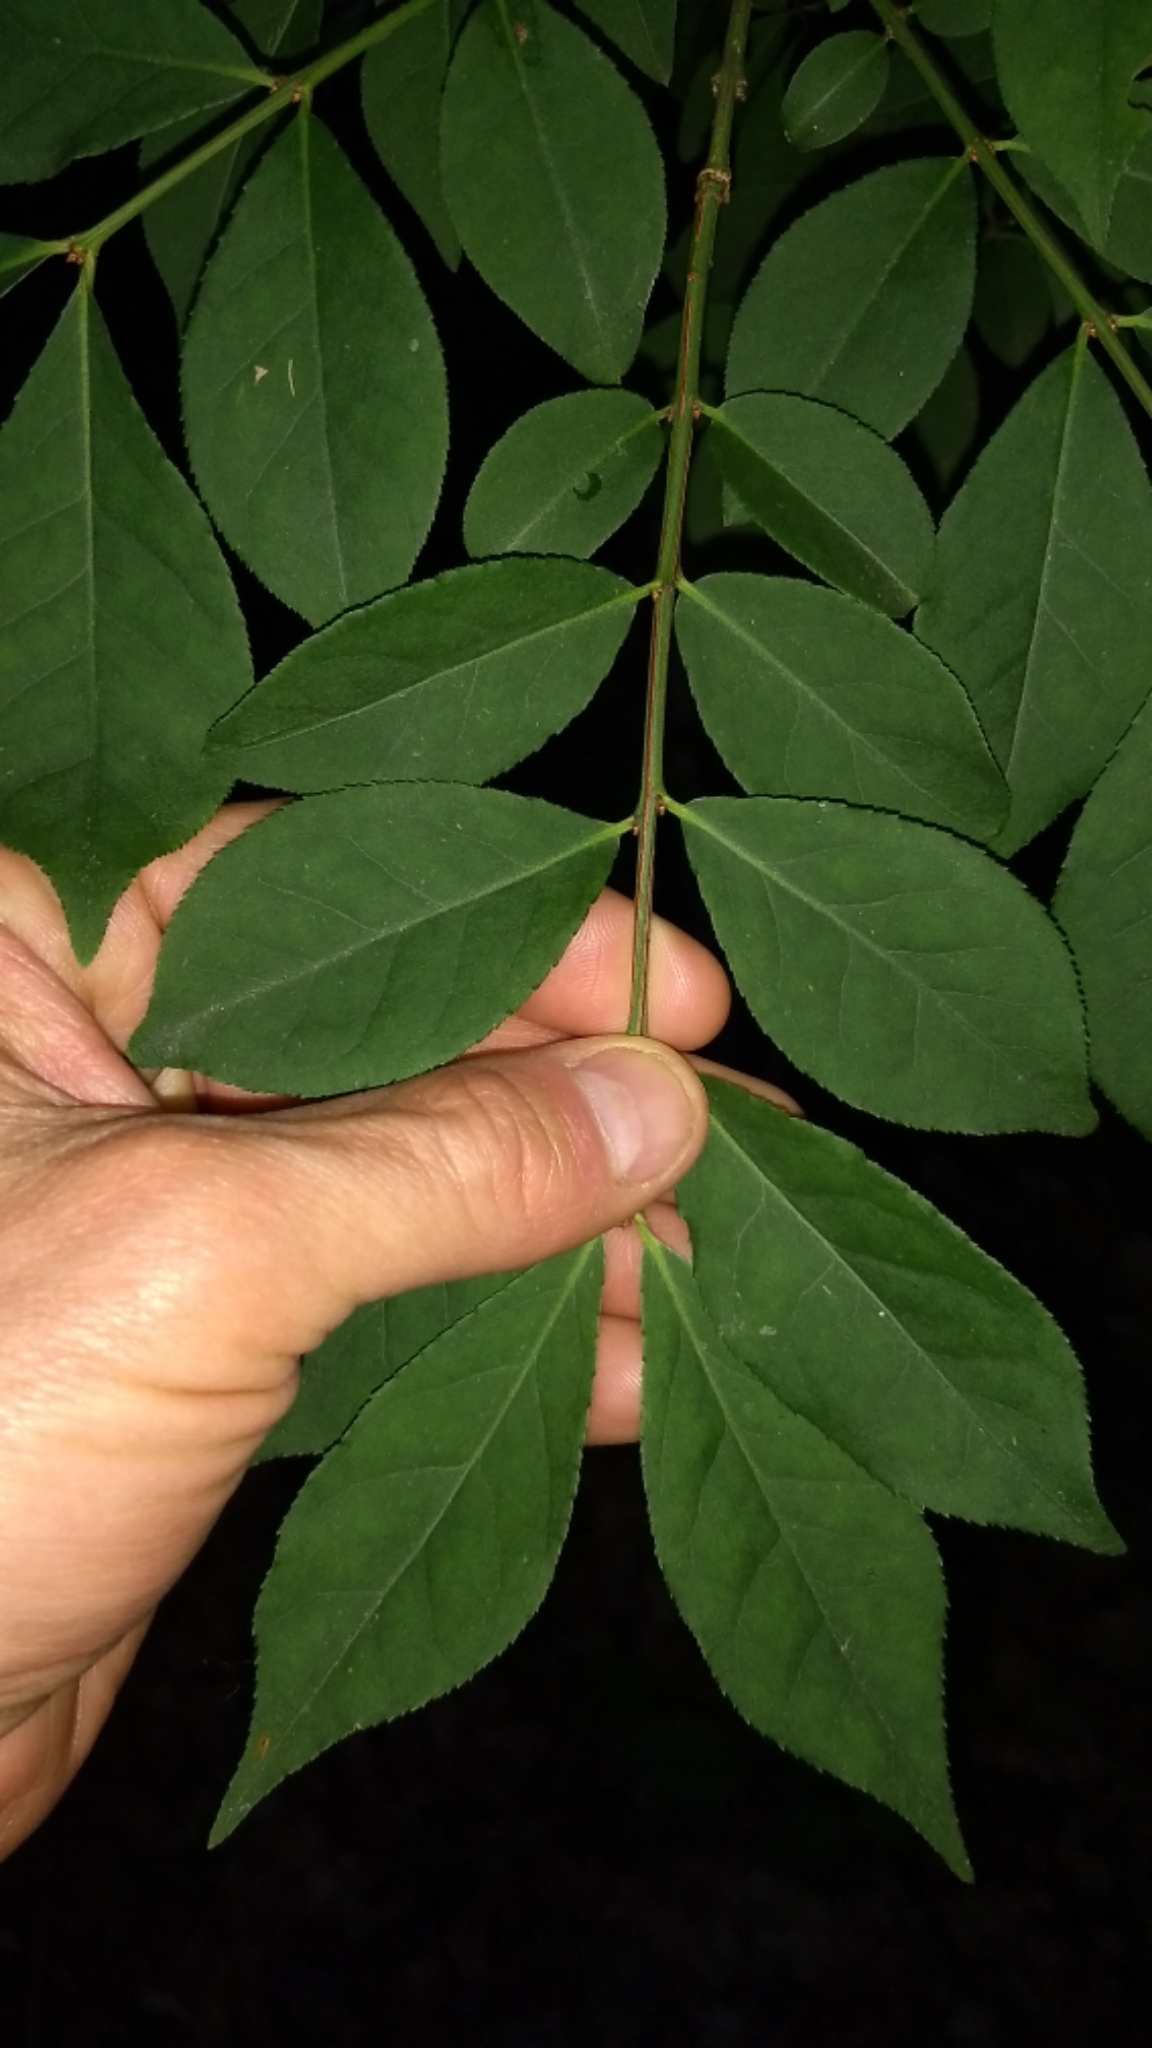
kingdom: Plantae
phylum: Tracheophyta
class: Magnoliopsida
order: Celastrales
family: Celastraceae
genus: Euonymus
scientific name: Euonymus alatus
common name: Winged euonymus
